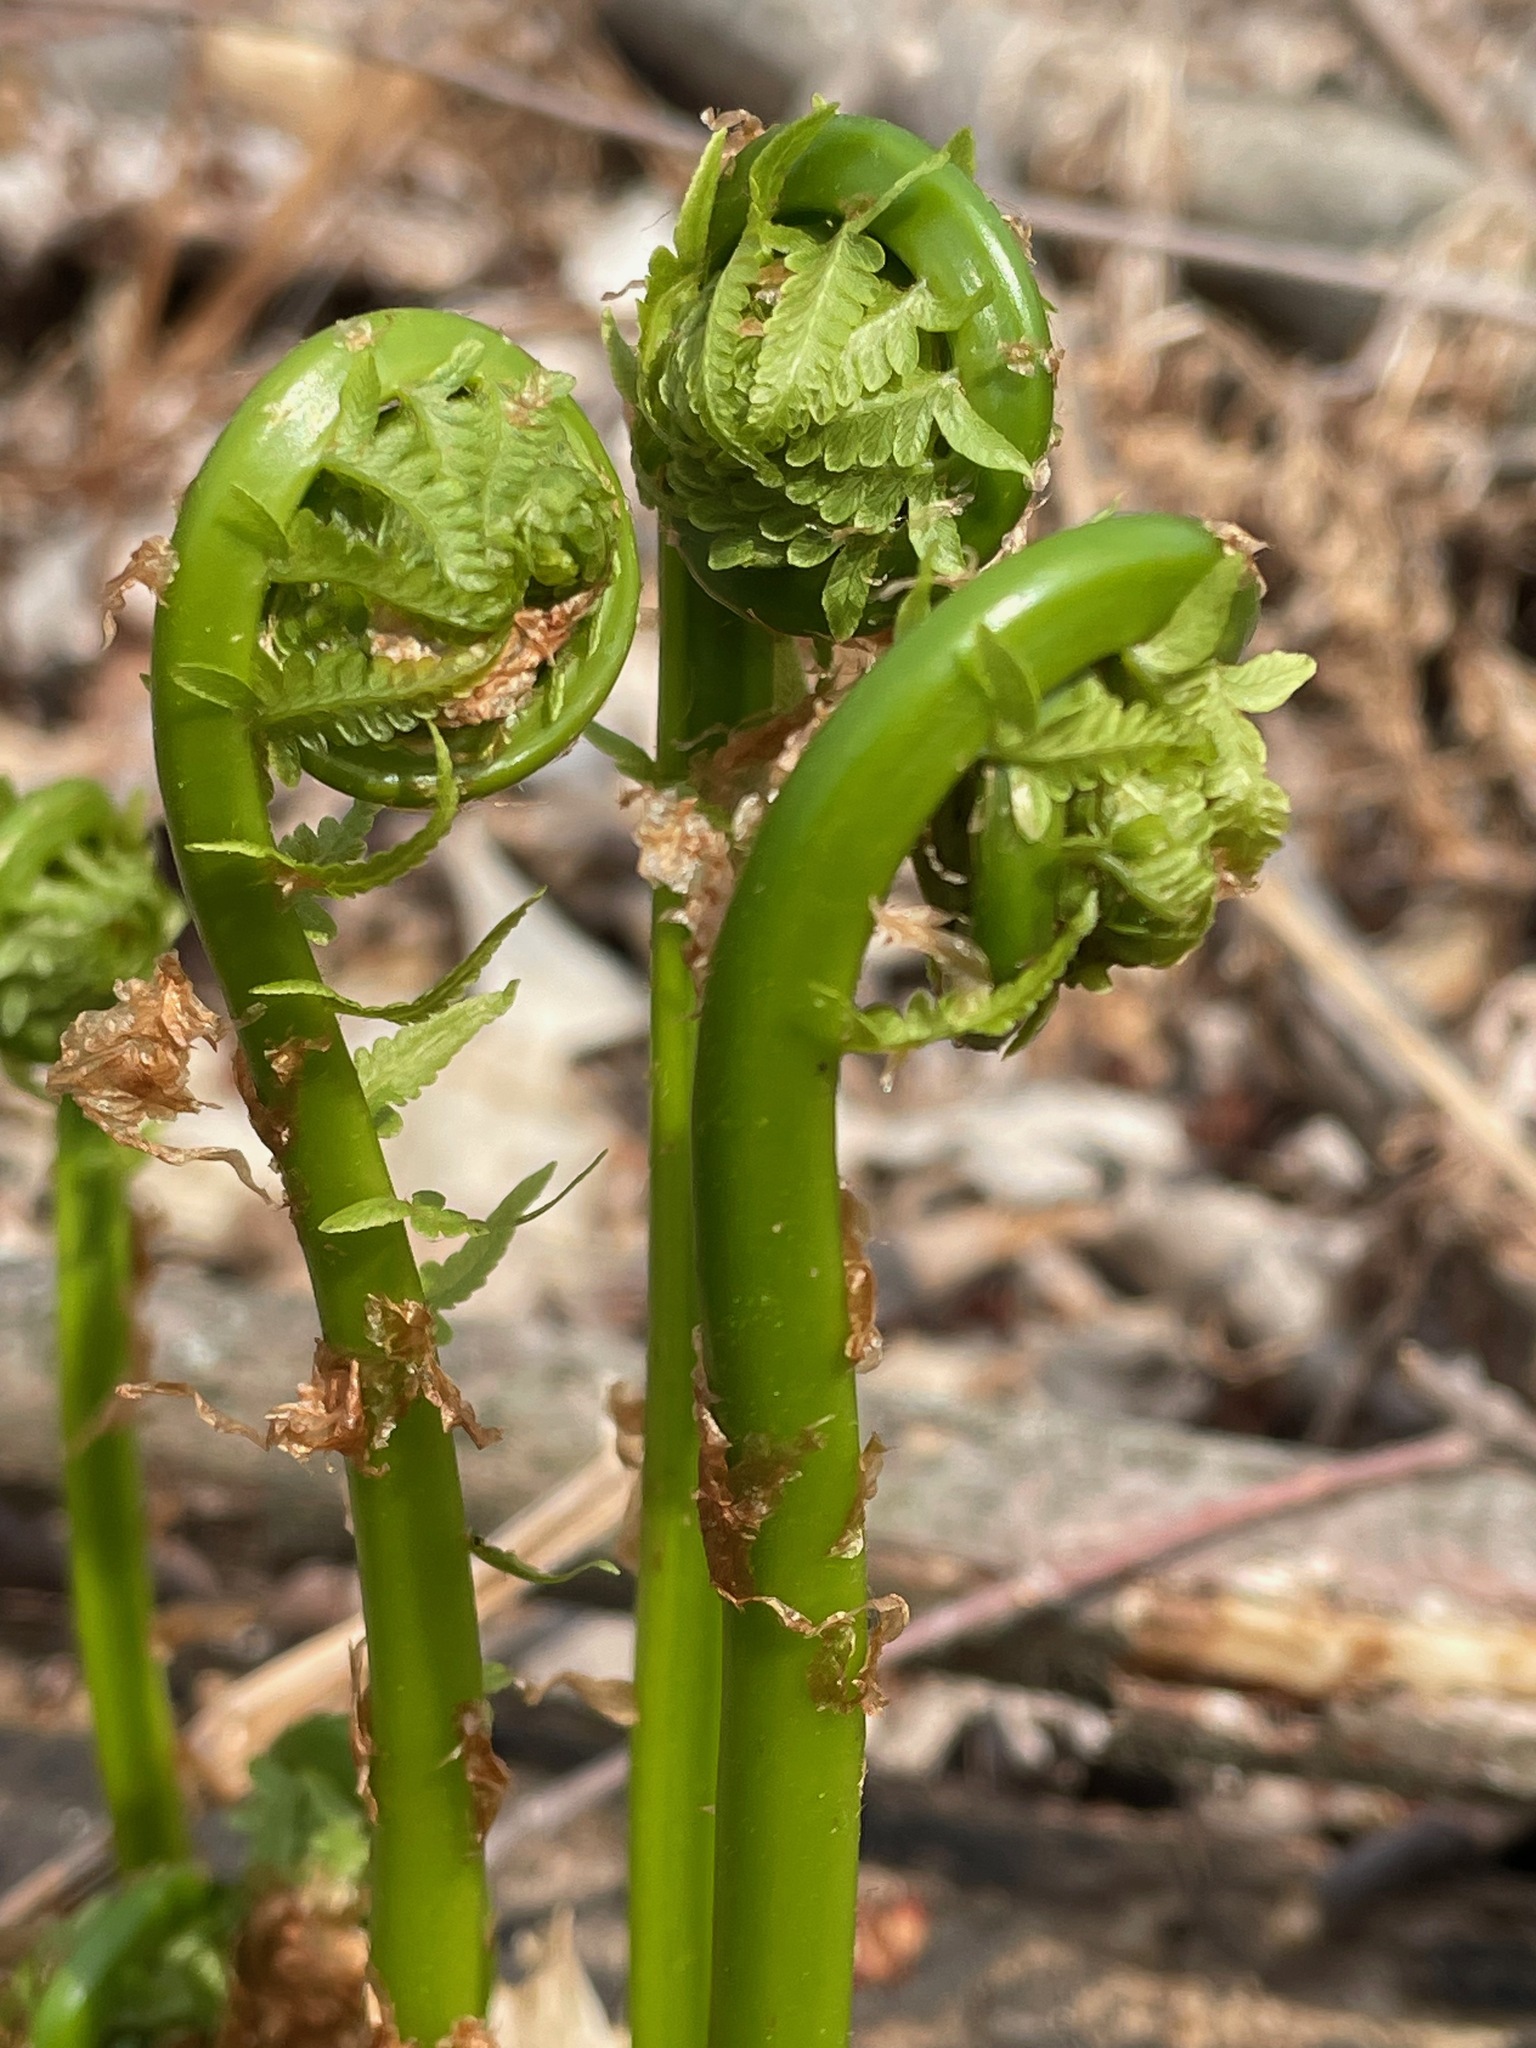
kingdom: Plantae
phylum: Tracheophyta
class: Polypodiopsida
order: Polypodiales
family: Onocleaceae
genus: Matteuccia
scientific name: Matteuccia struthiopteris
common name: Ostrich fern
